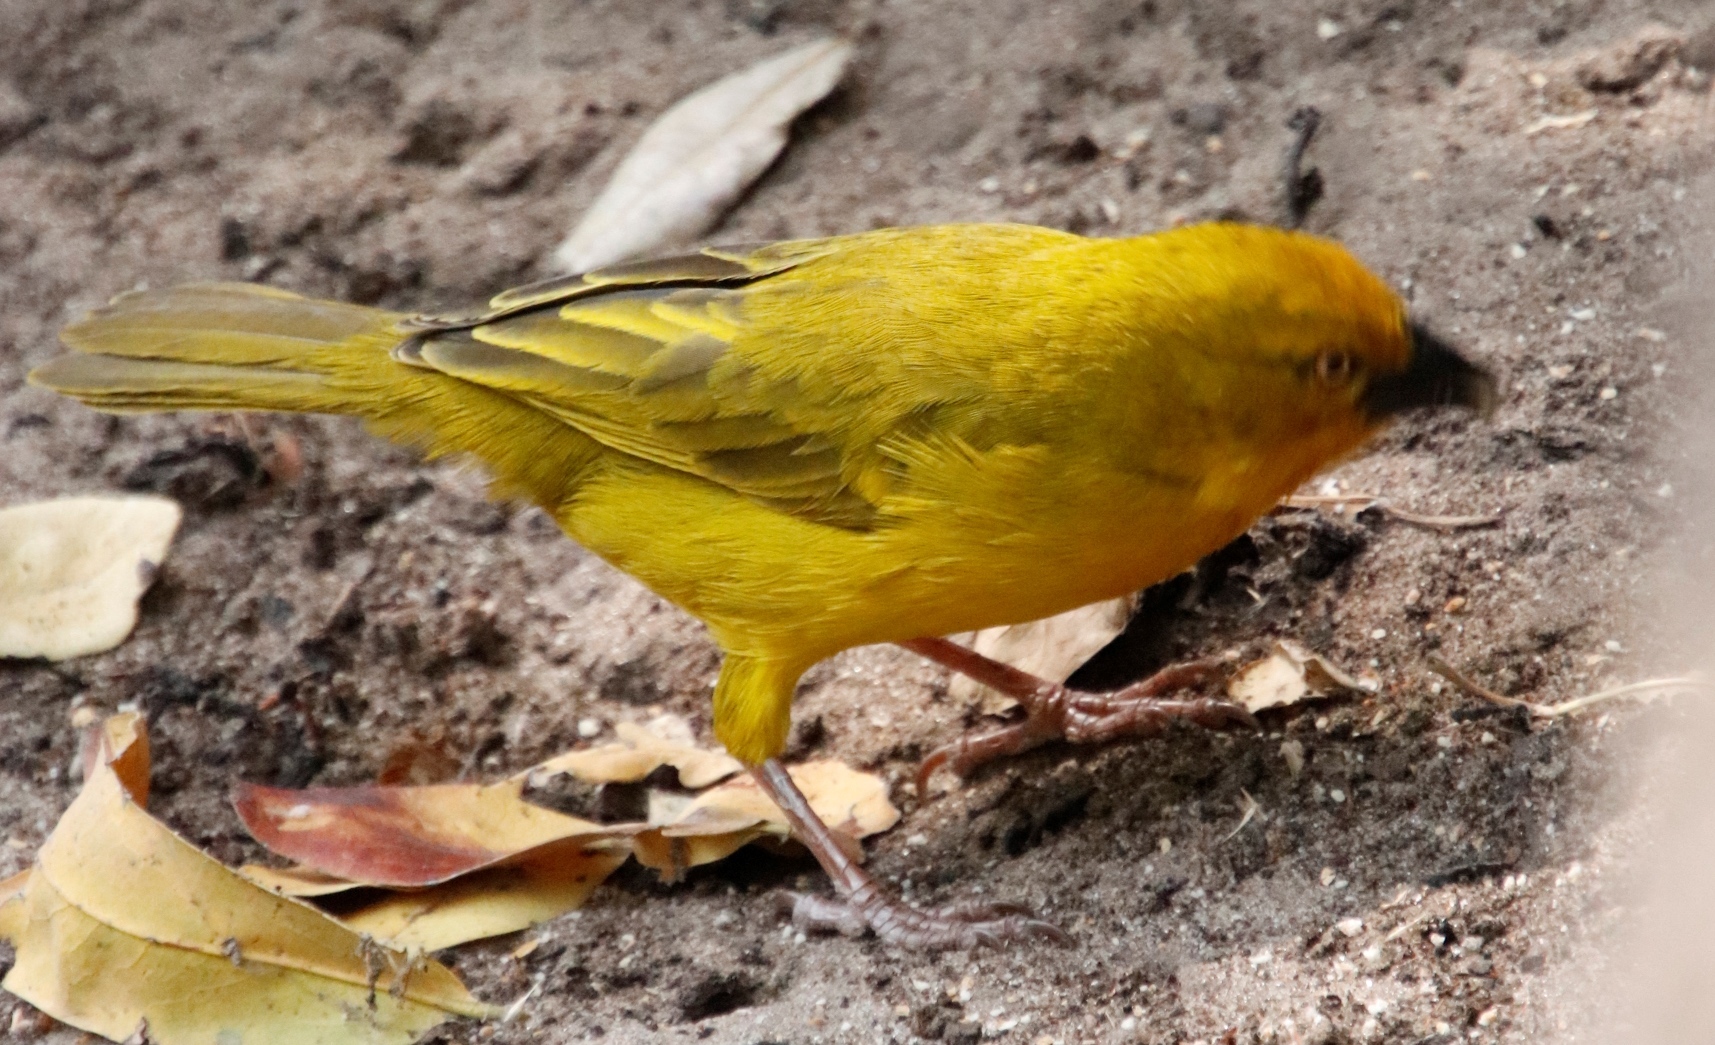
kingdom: Animalia
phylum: Chordata
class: Aves
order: Passeriformes
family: Ploceidae
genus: Ploceus
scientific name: Ploceus xanthops
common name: Holub's golden weaver
